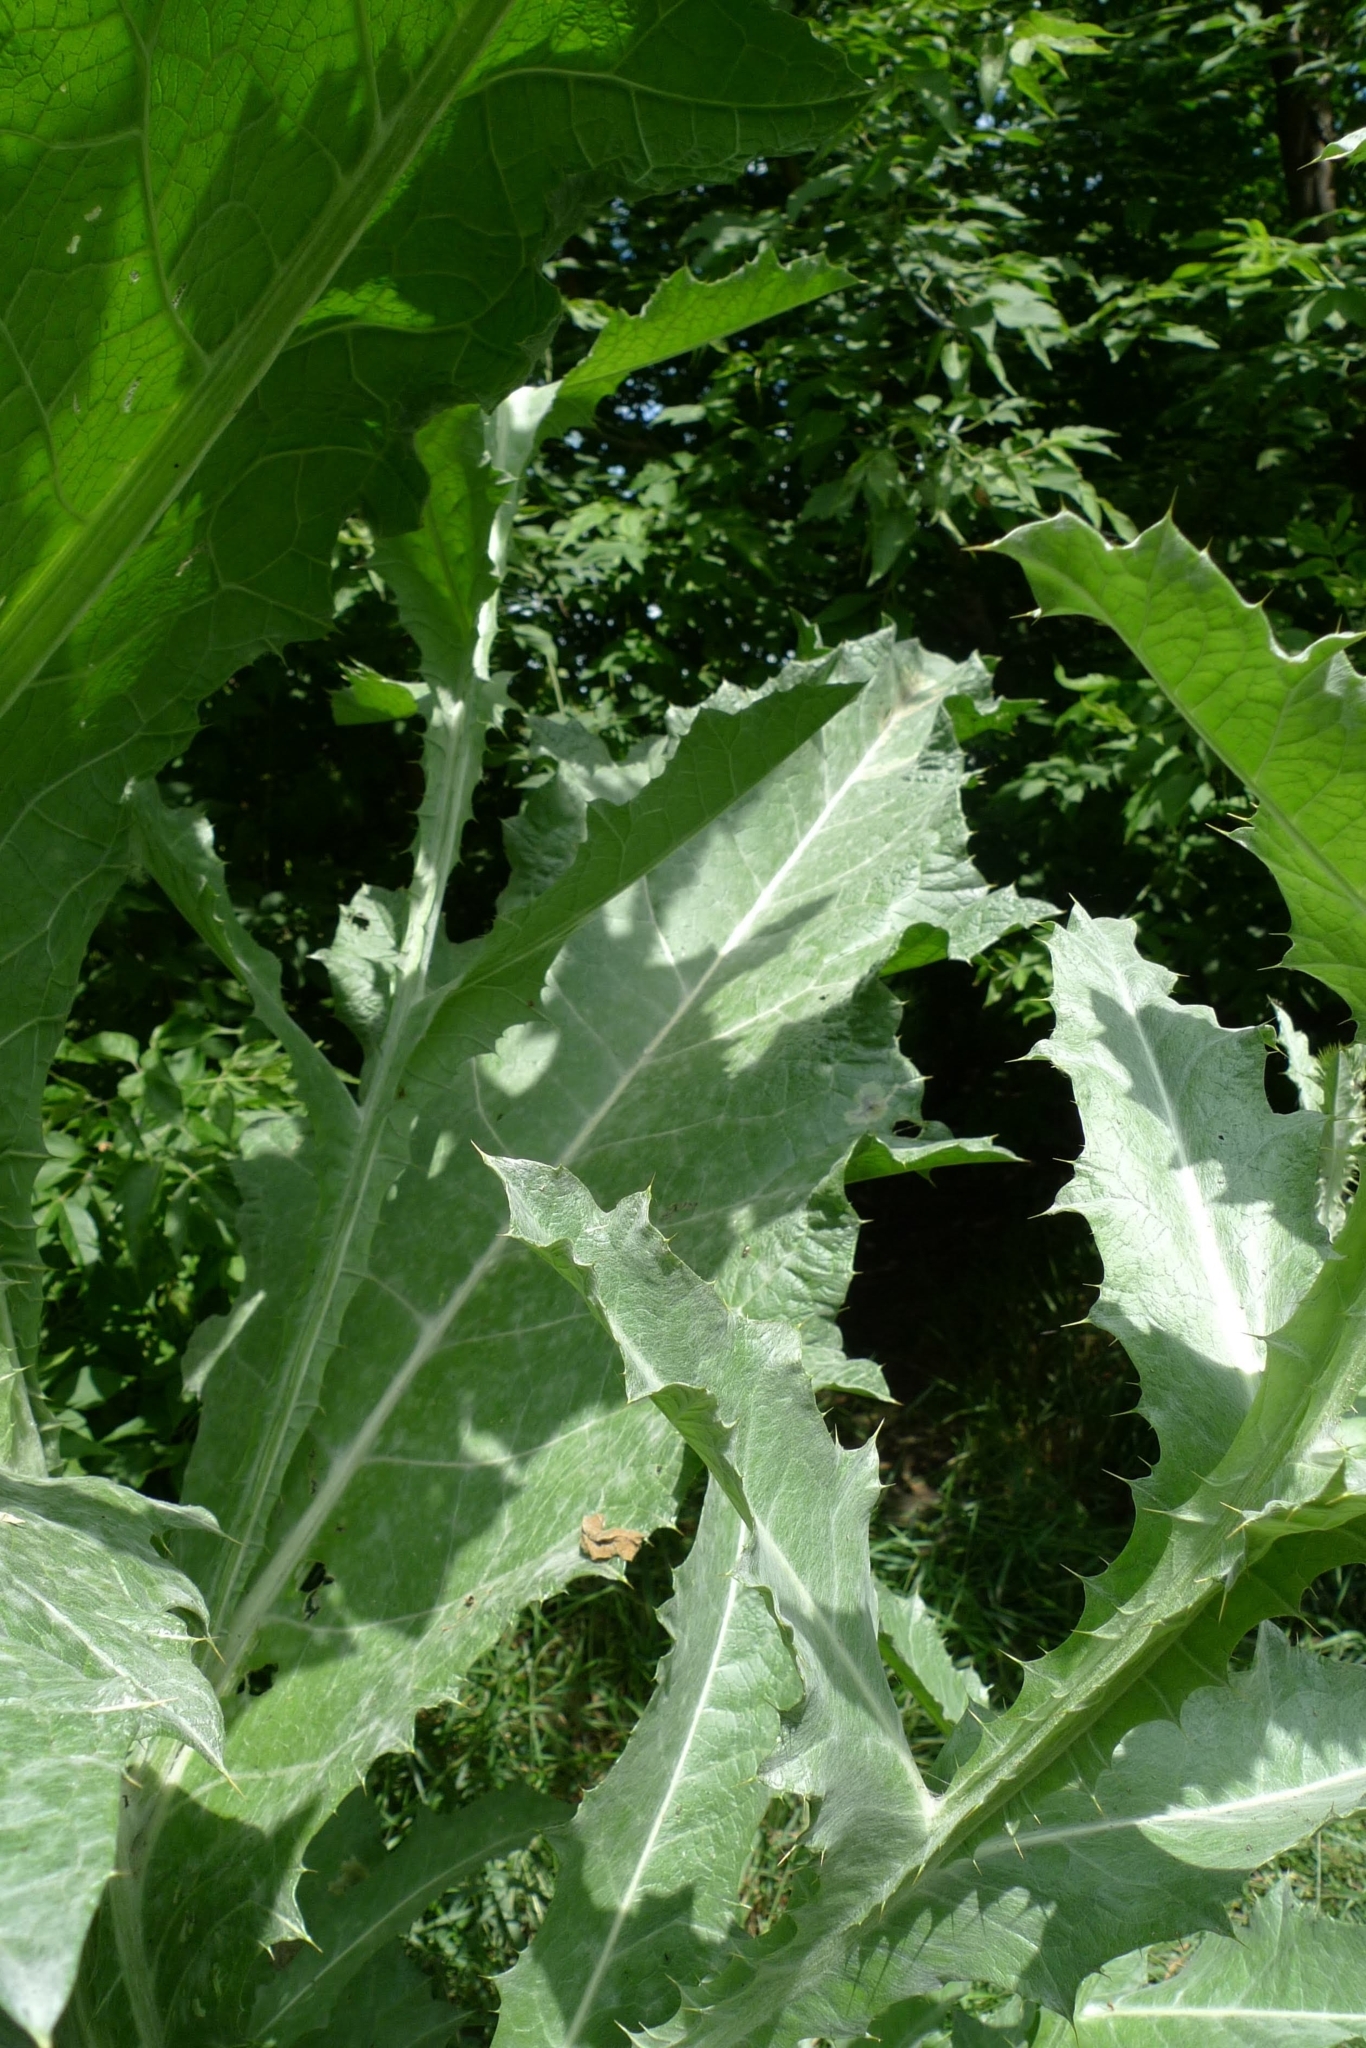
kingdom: Plantae
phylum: Tracheophyta
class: Magnoliopsida
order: Asterales
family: Asteraceae
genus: Onopordum
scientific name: Onopordum acanthium
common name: Scotch thistle
